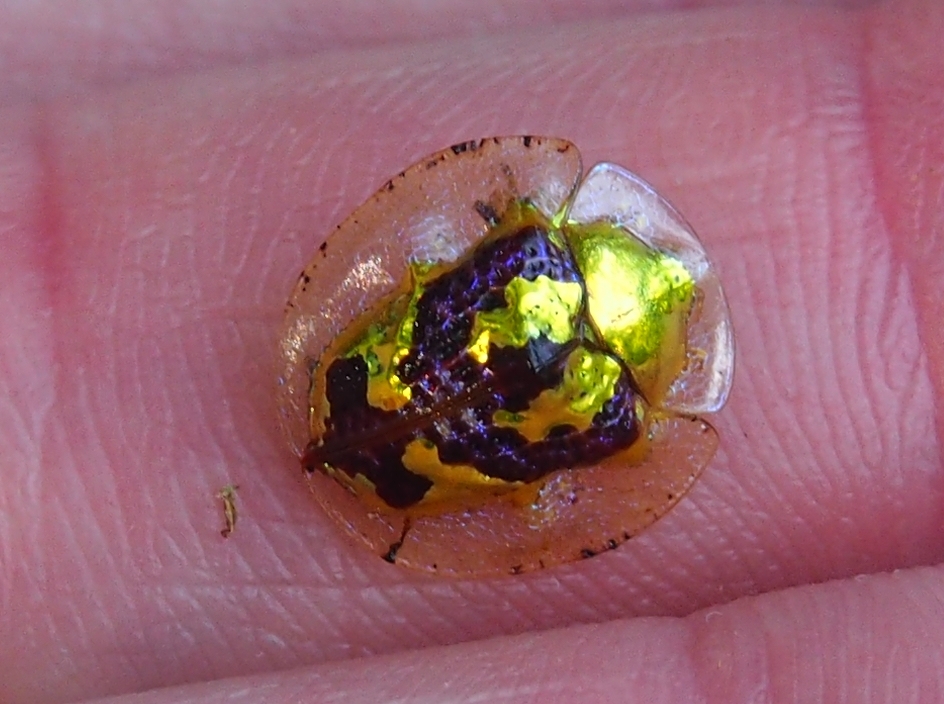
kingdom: Animalia
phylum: Arthropoda
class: Insecta
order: Coleoptera
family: Chrysomelidae
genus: Coptocycla
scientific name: Coptocycla leprosa
